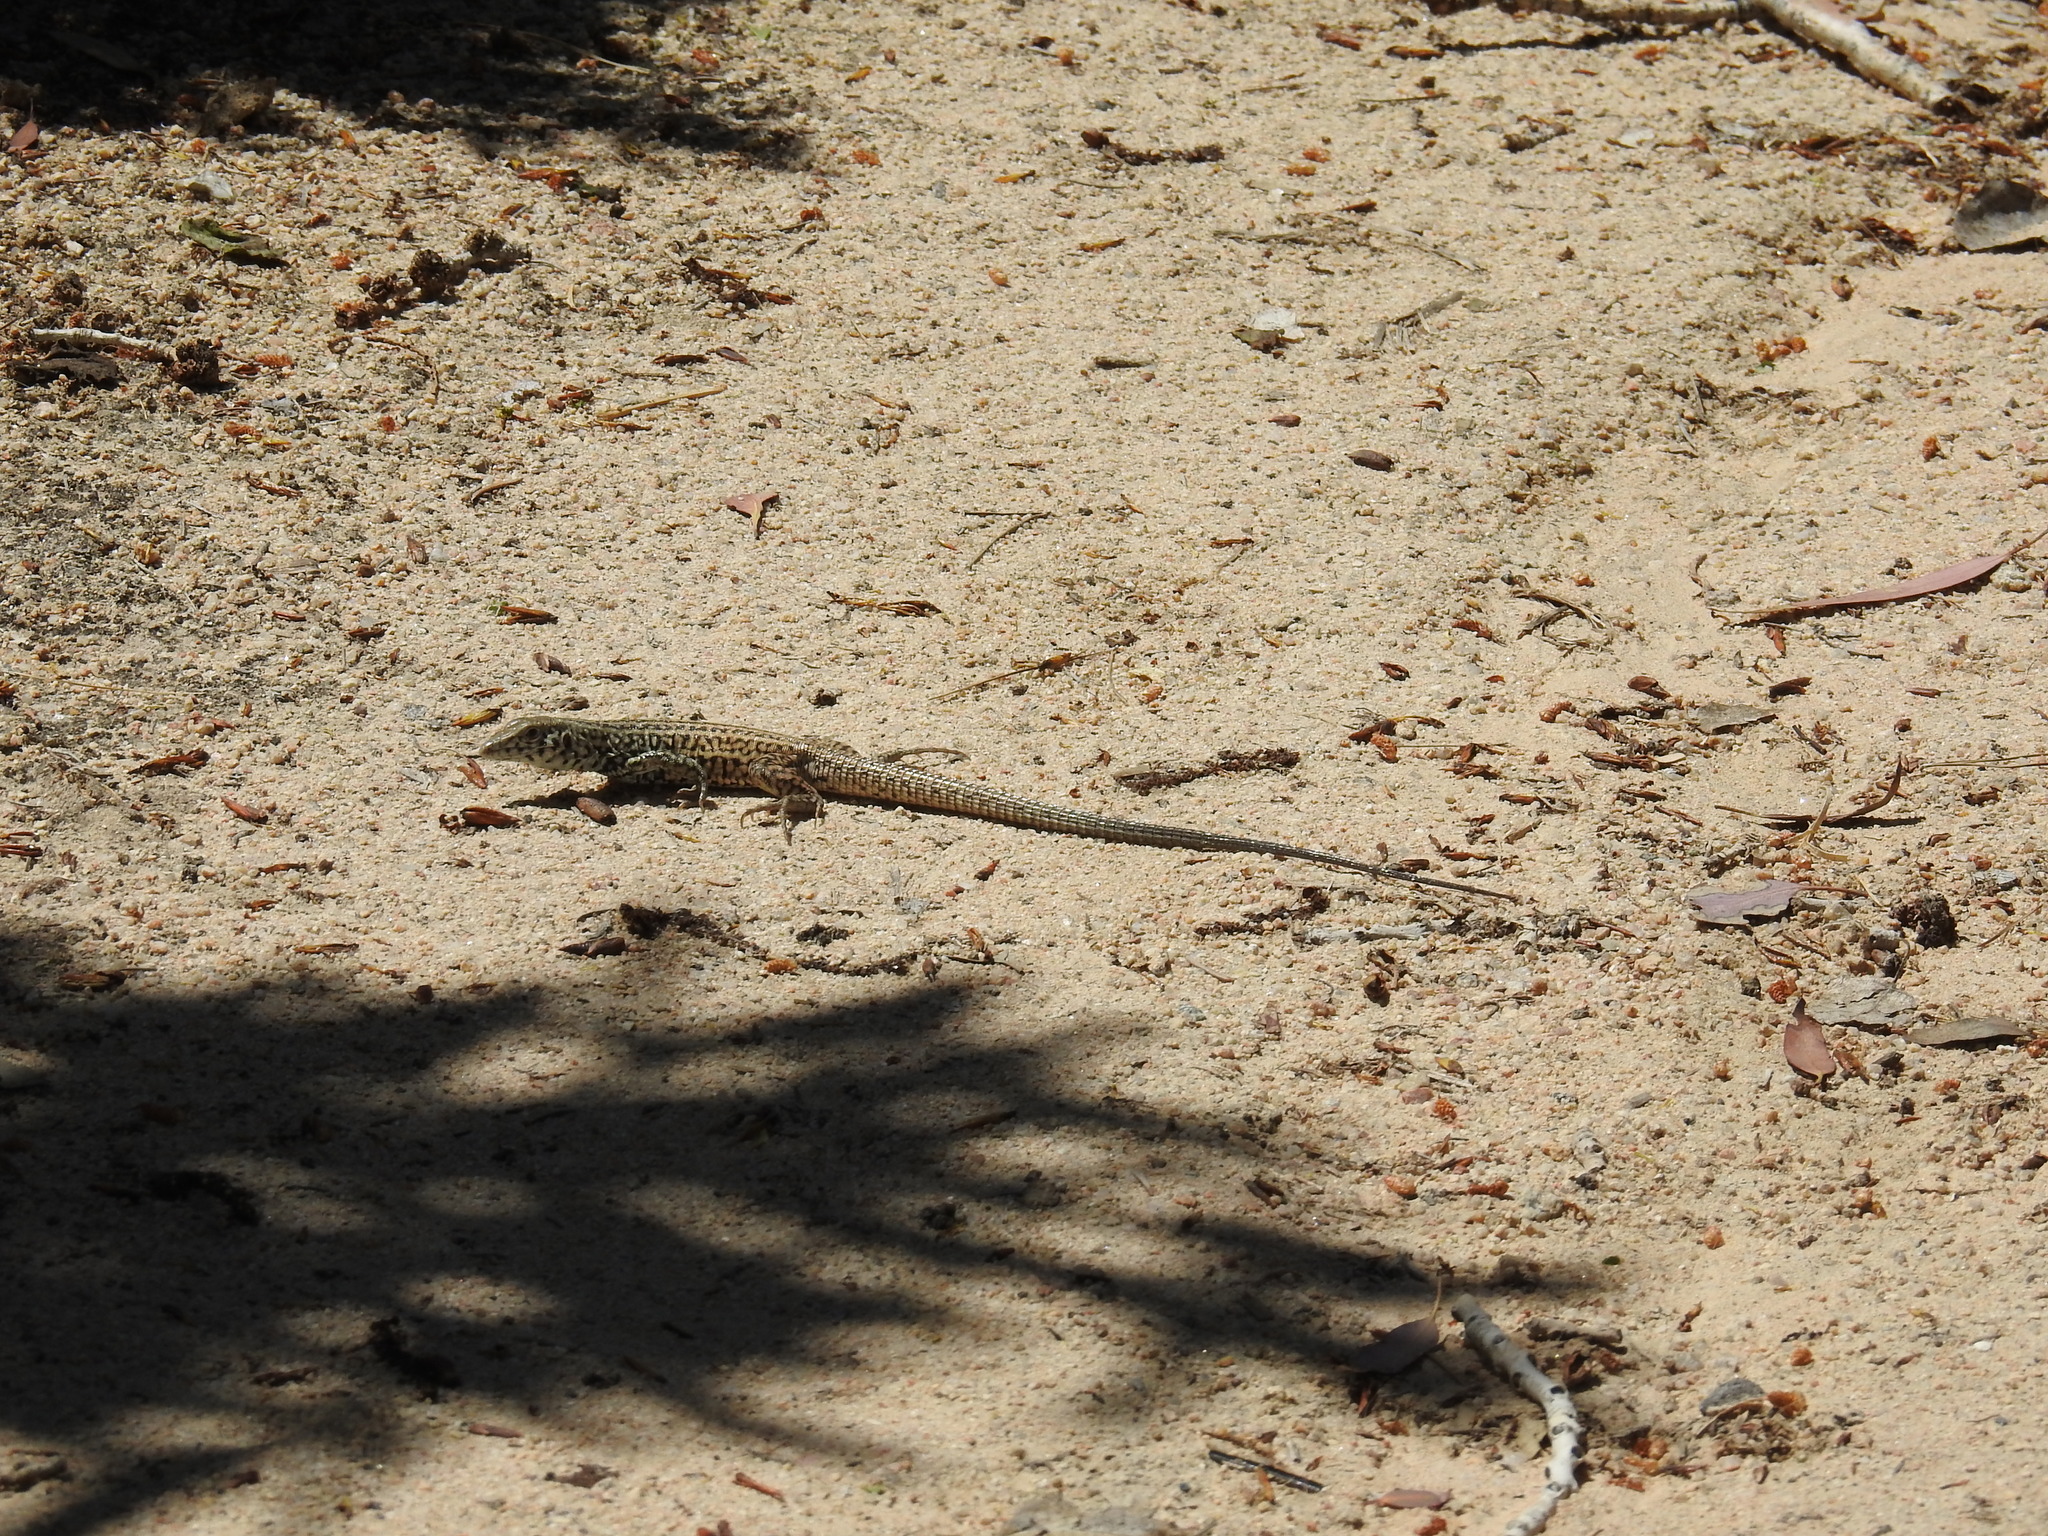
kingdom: Animalia
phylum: Chordata
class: Squamata
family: Teiidae
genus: Aspidoscelis
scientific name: Aspidoscelis tigris
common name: Tiger whiptail
